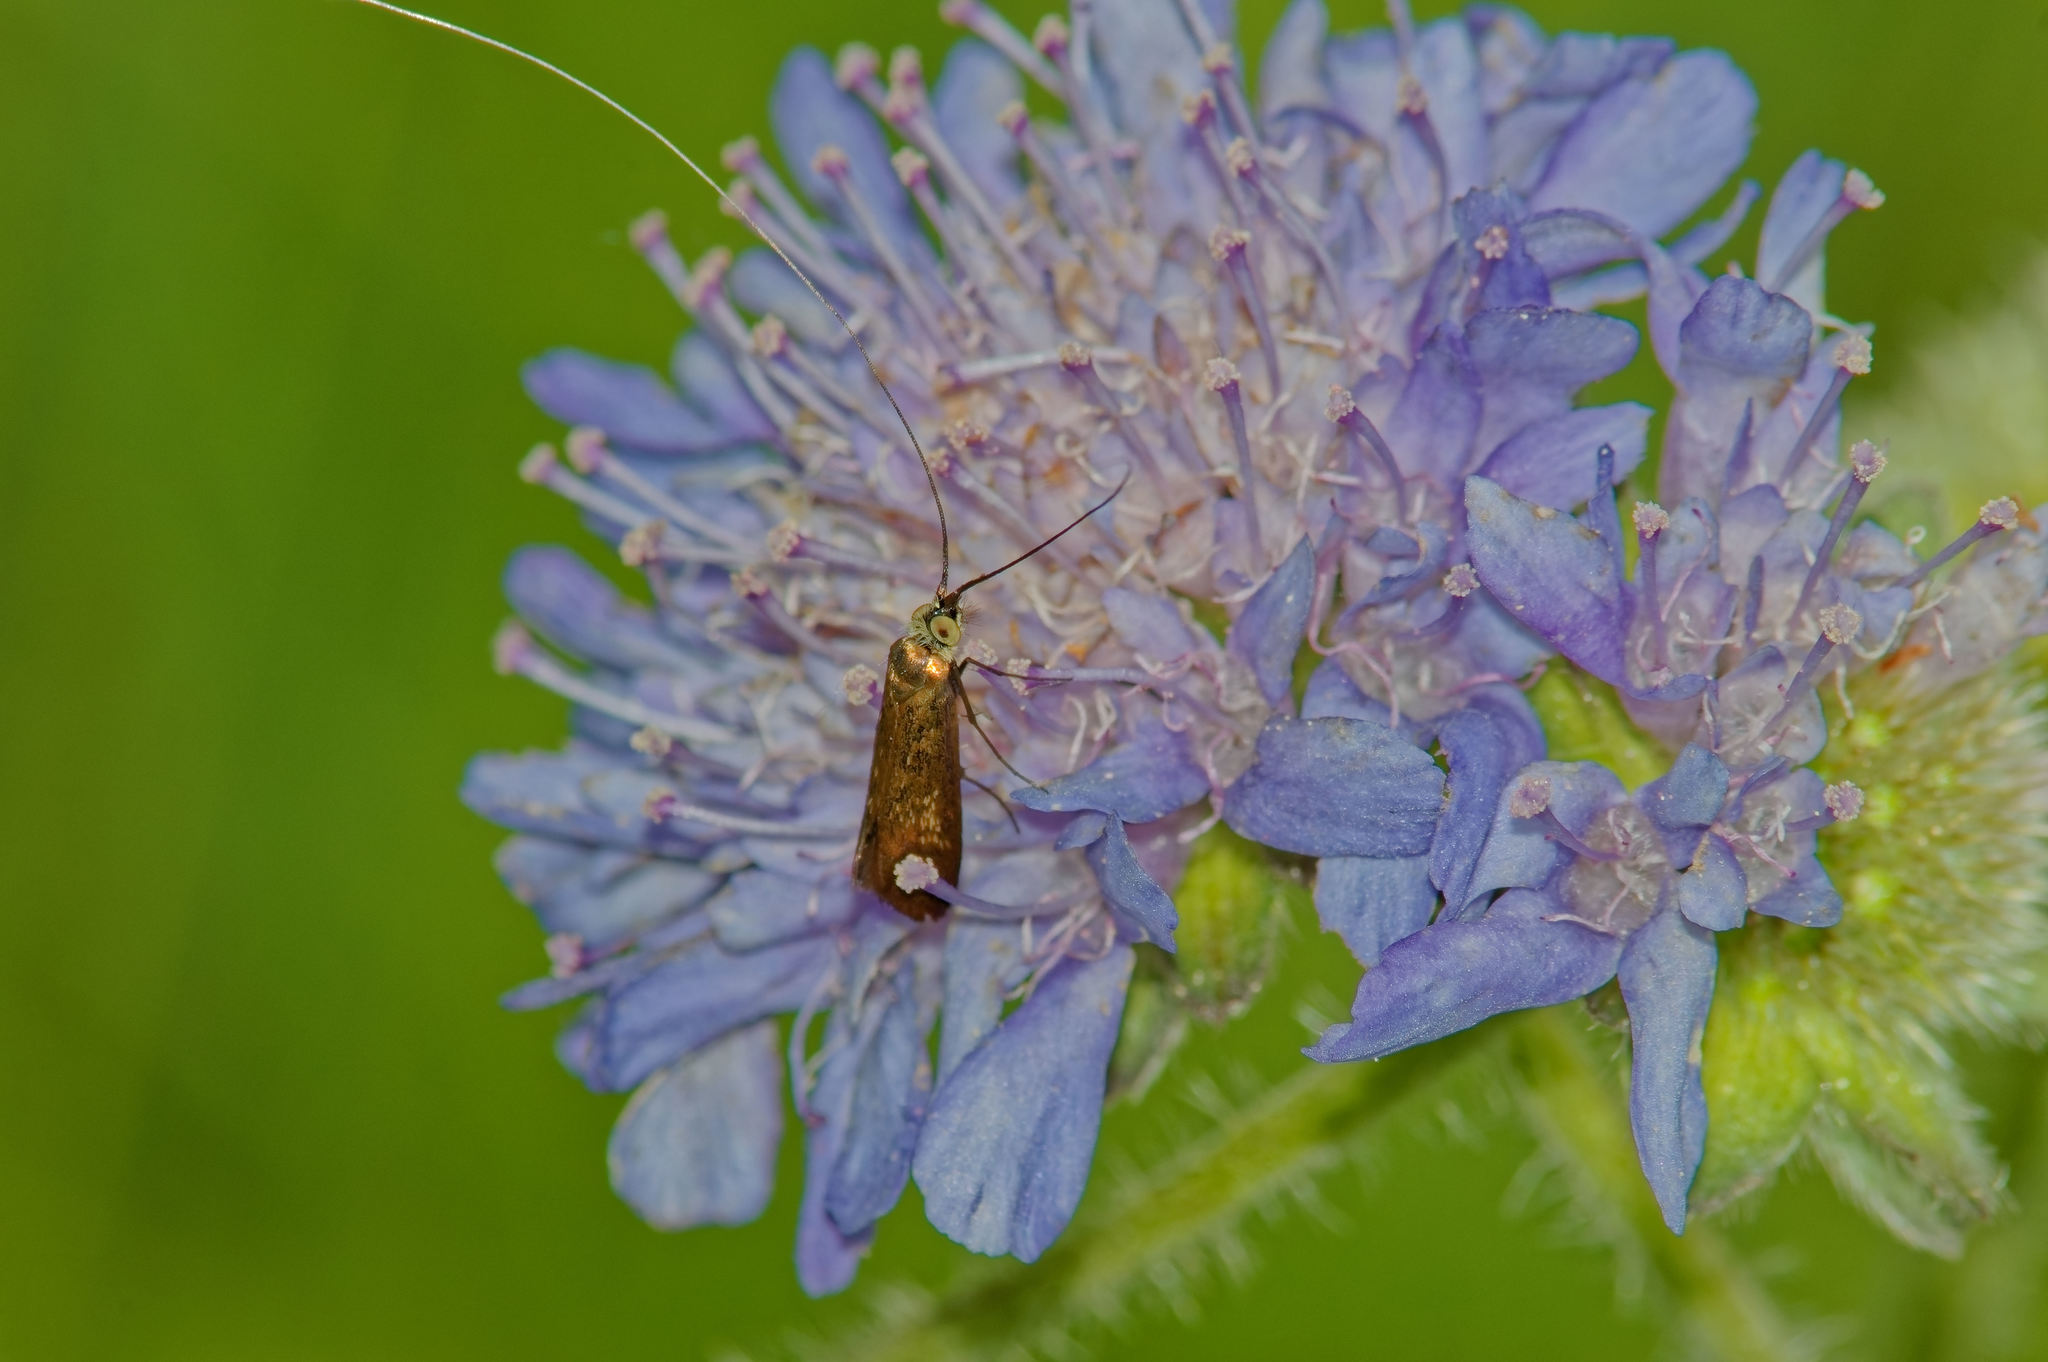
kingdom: Animalia
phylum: Arthropoda
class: Insecta
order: Lepidoptera
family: Adelidae
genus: Nemophora
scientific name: Nemophora metallica
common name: Brassy long-horn
